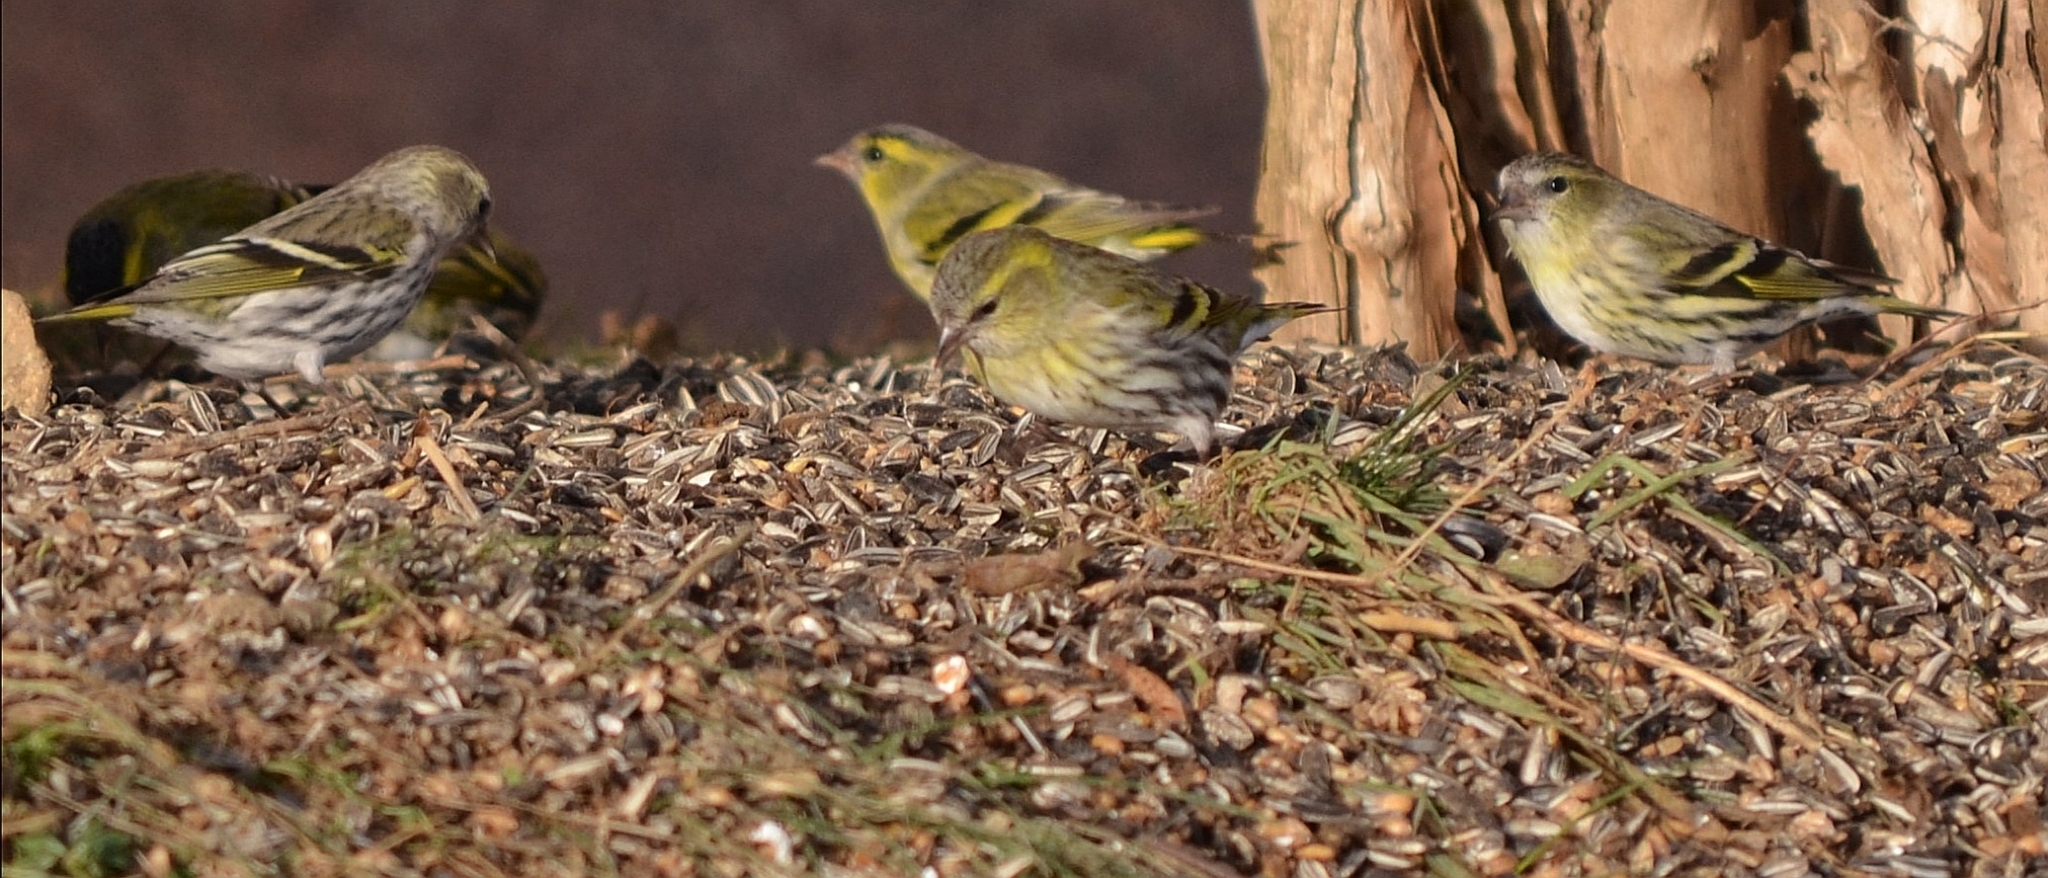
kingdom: Animalia
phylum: Chordata
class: Aves
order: Passeriformes
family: Fringillidae
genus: Spinus
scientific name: Spinus spinus
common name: Eurasian siskin
